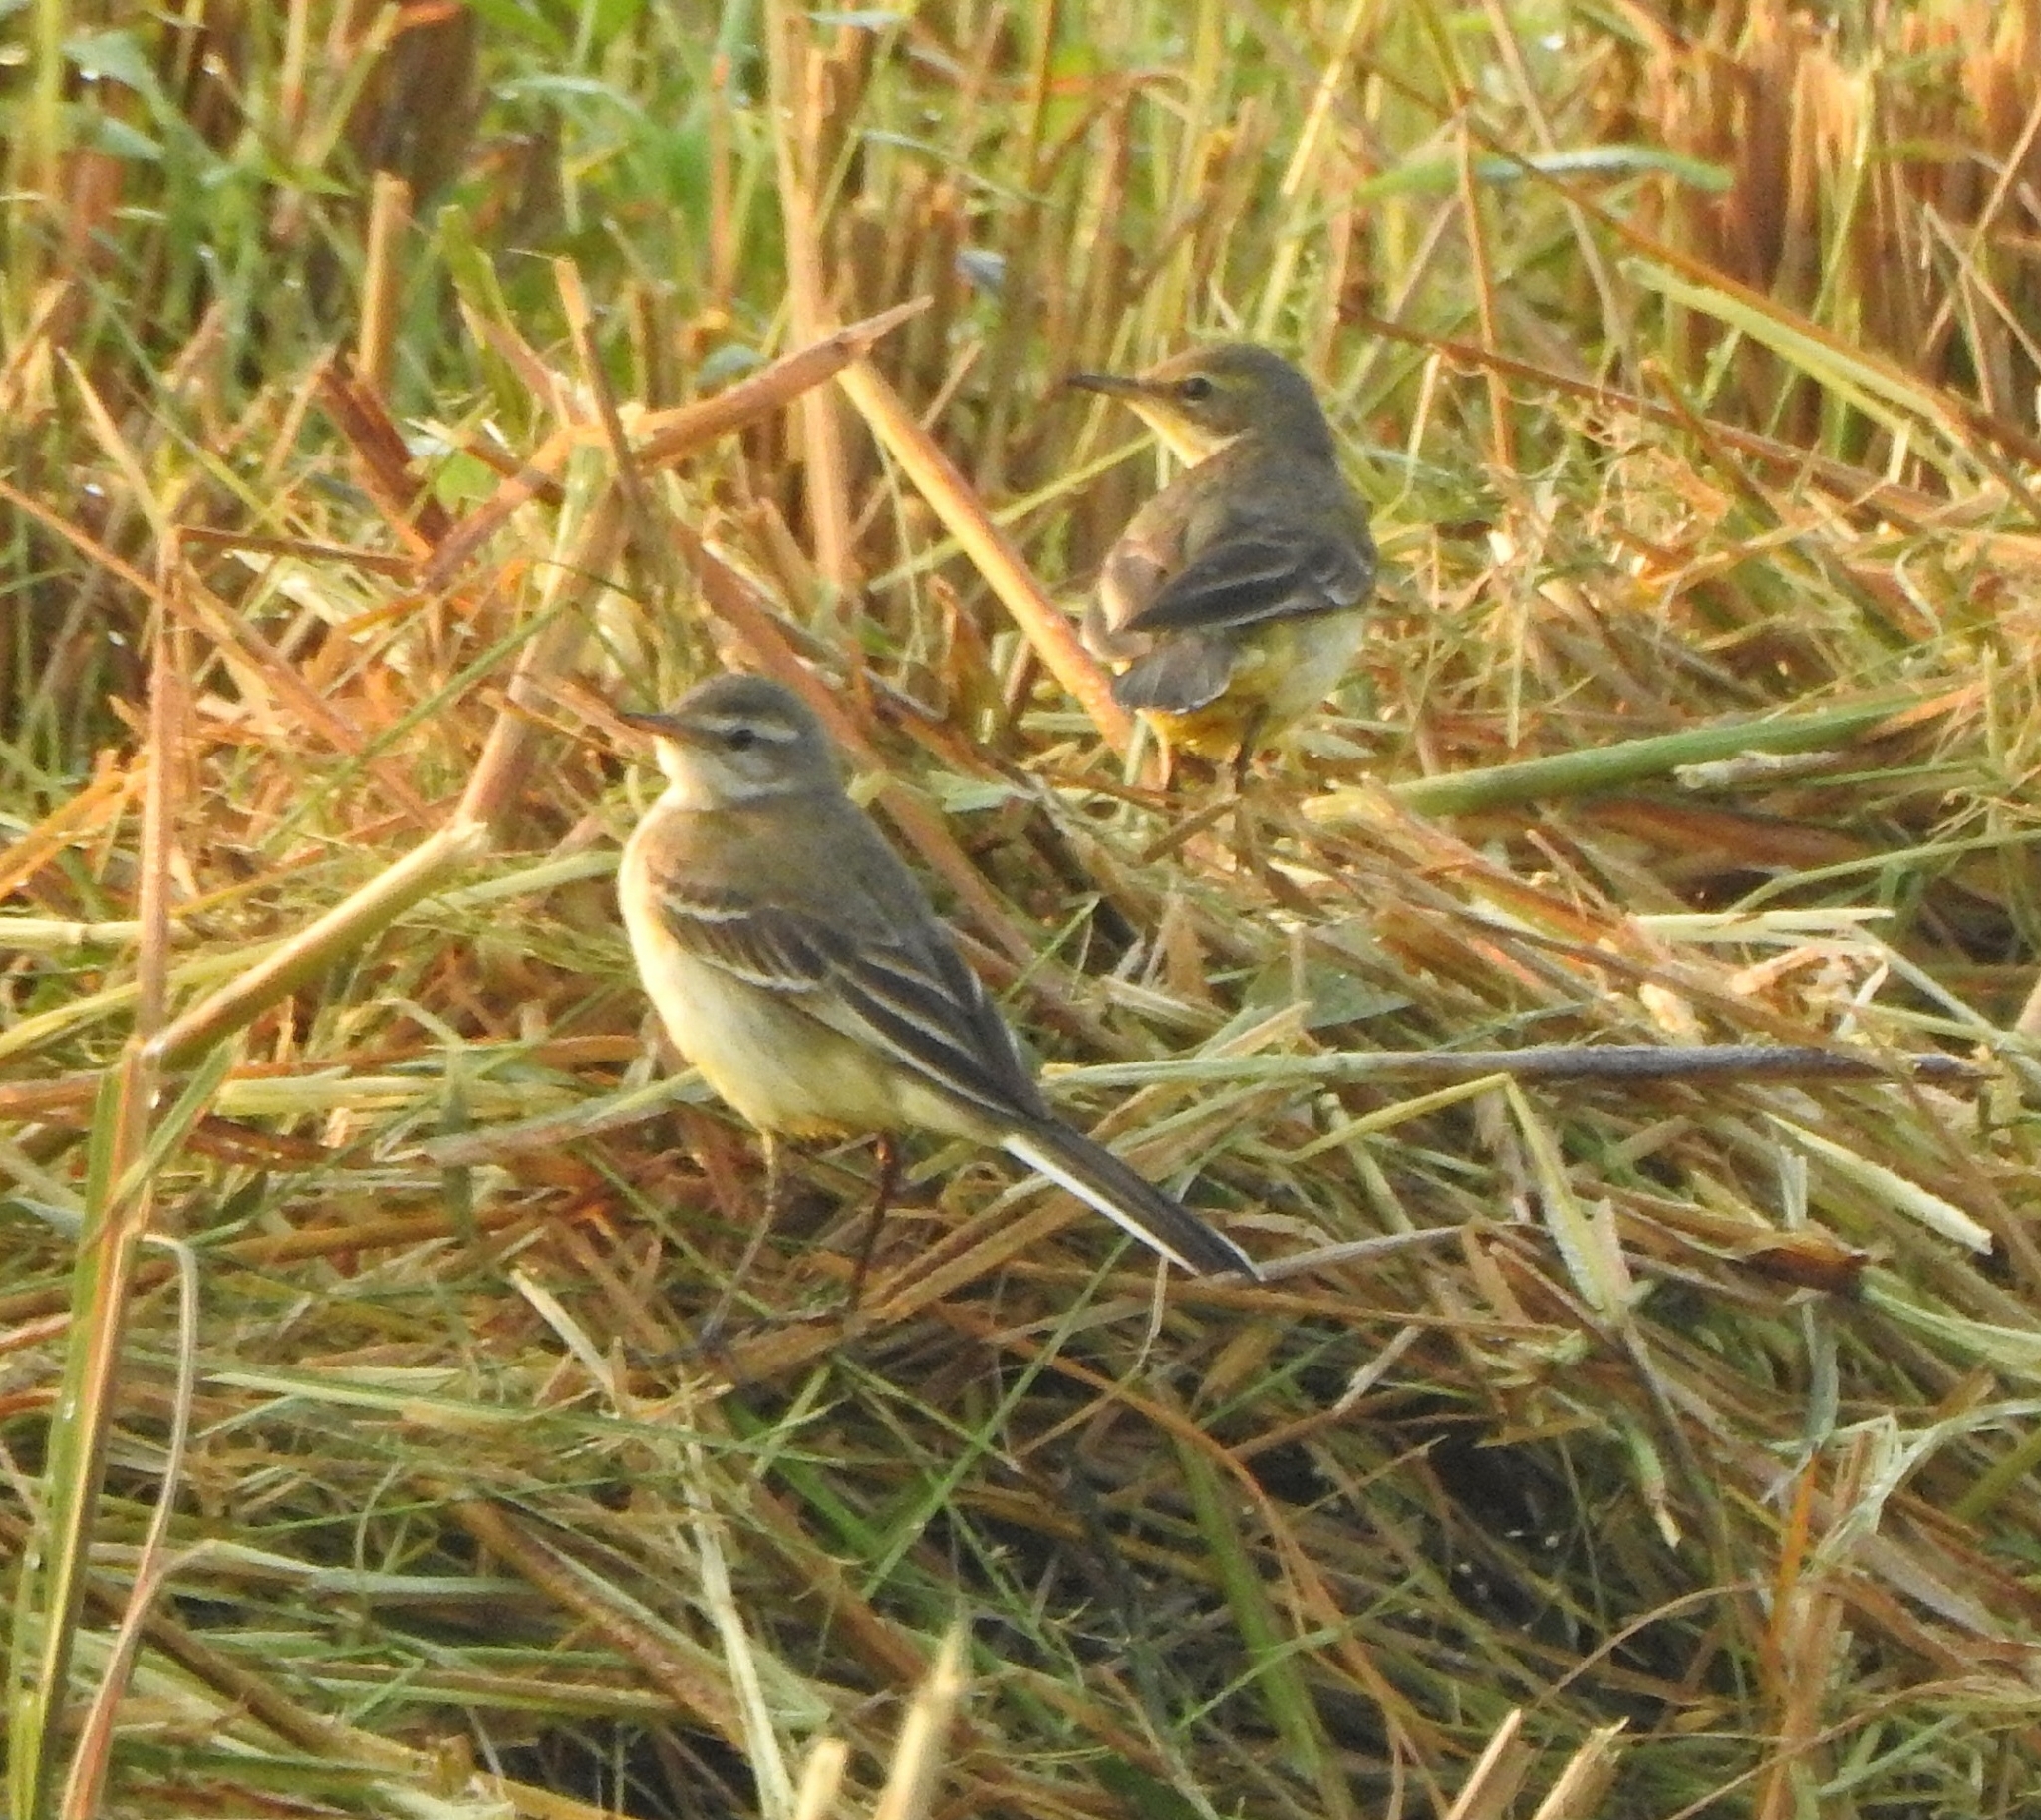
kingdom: Animalia
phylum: Chordata
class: Aves
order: Passeriformes
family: Motacillidae
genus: Motacilla
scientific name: Motacilla flava
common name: Western yellow wagtail
